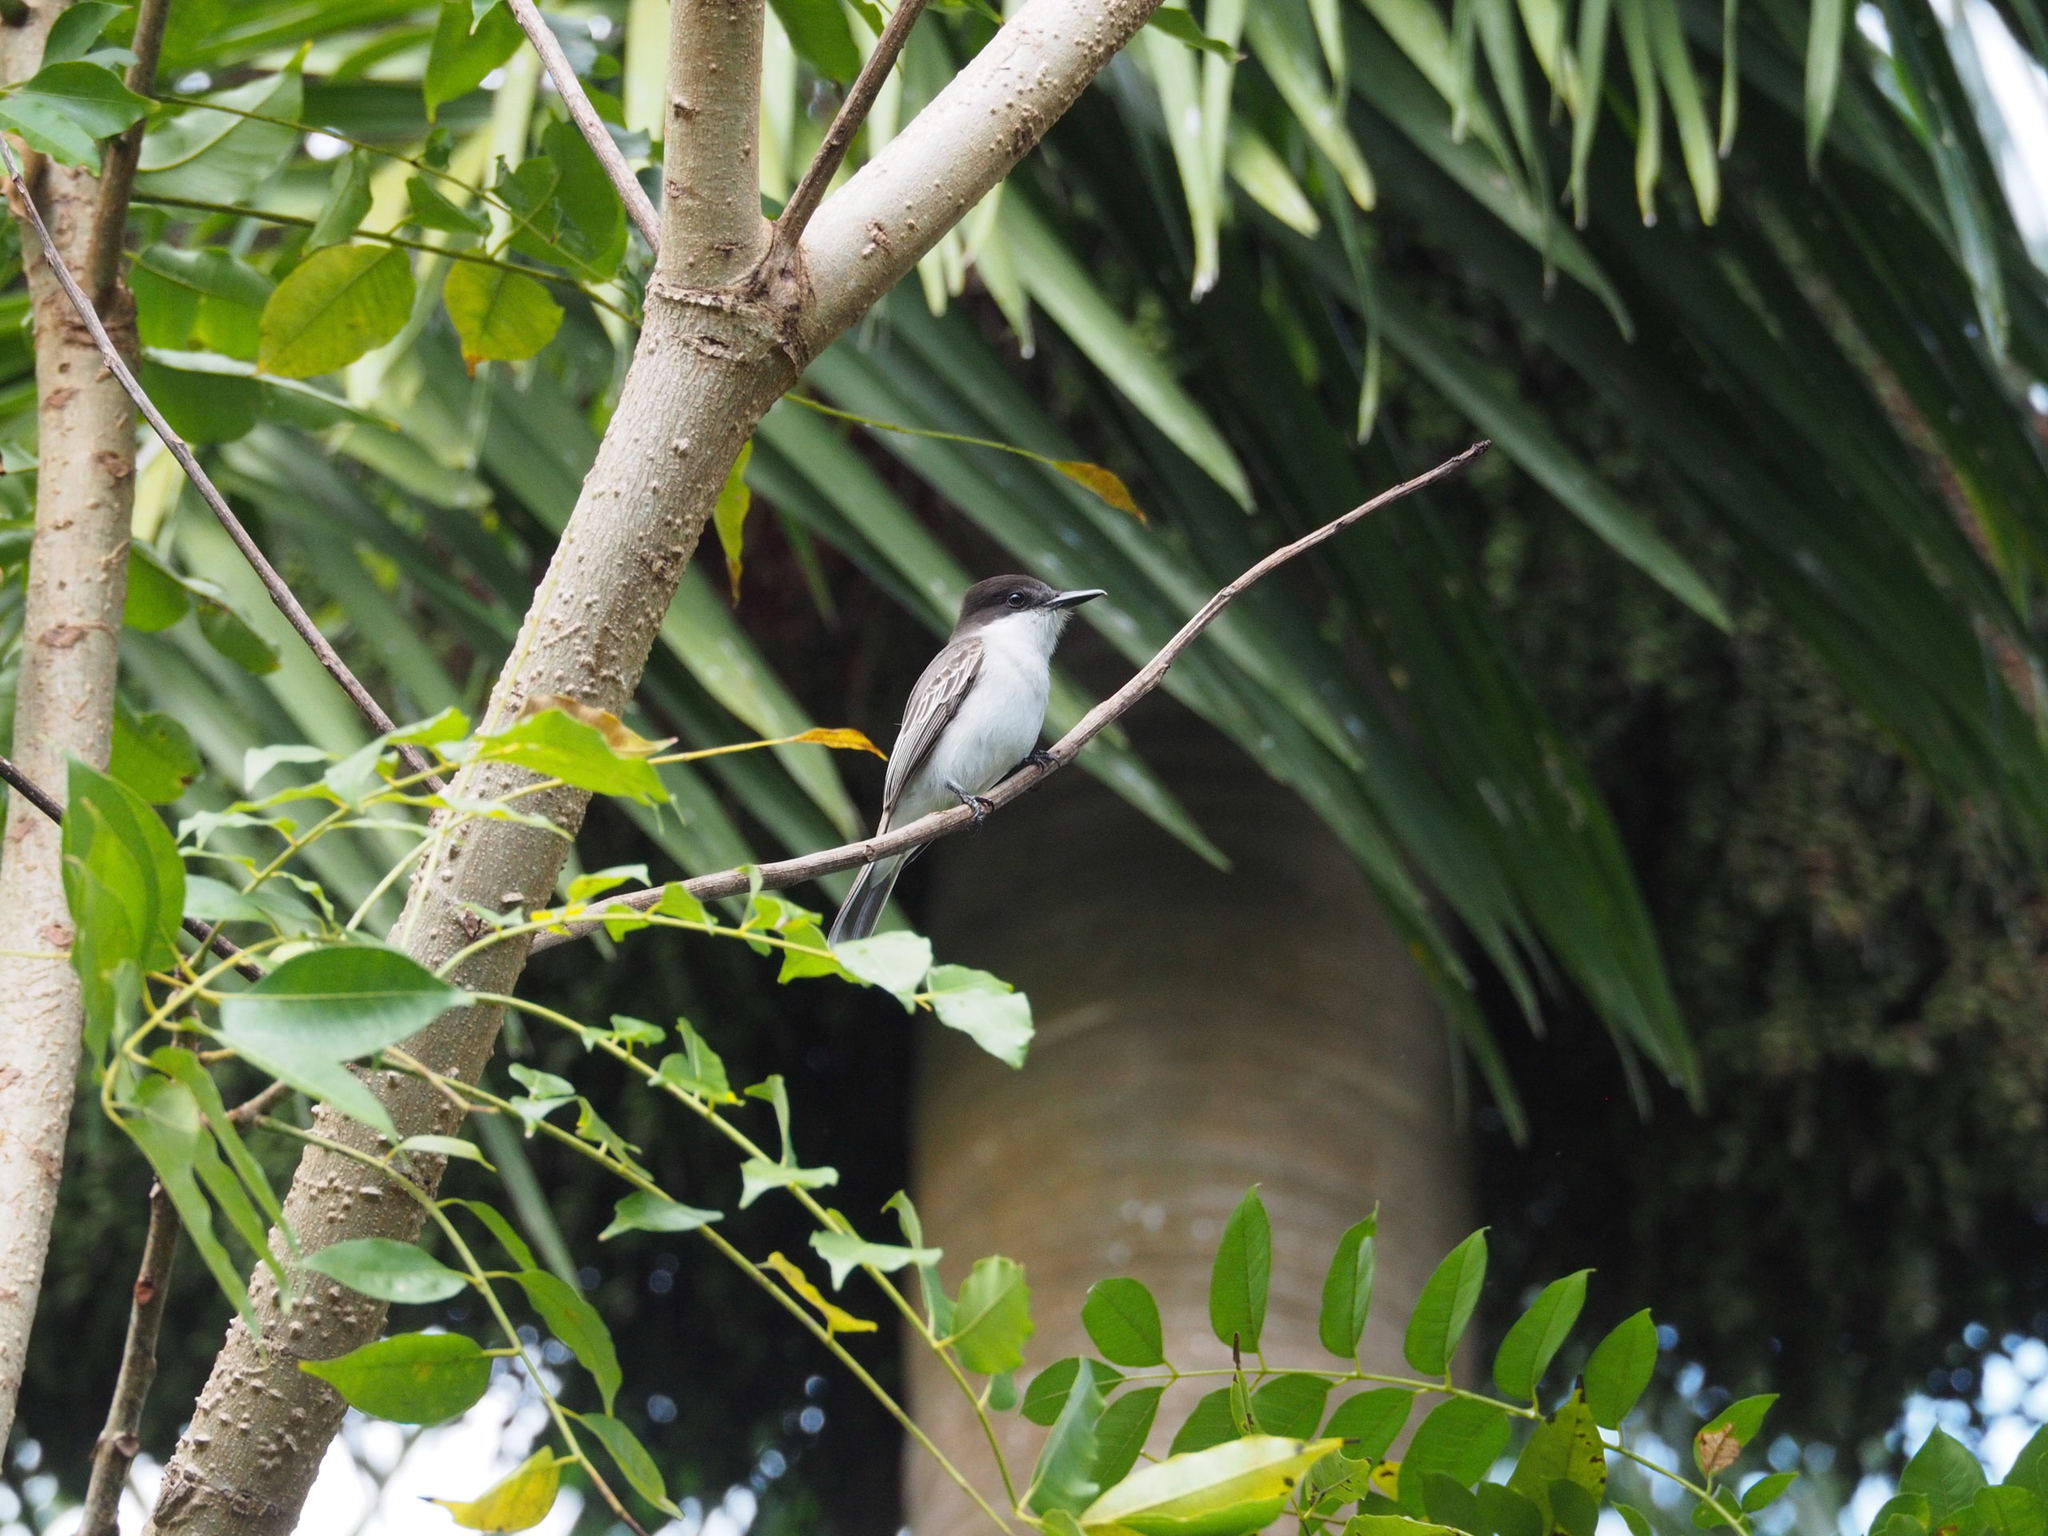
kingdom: Animalia
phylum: Chordata
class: Aves
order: Passeriformes
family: Tyrannidae
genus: Tyrannus
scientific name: Tyrannus caudifasciatus
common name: Loggerhead kingbird
